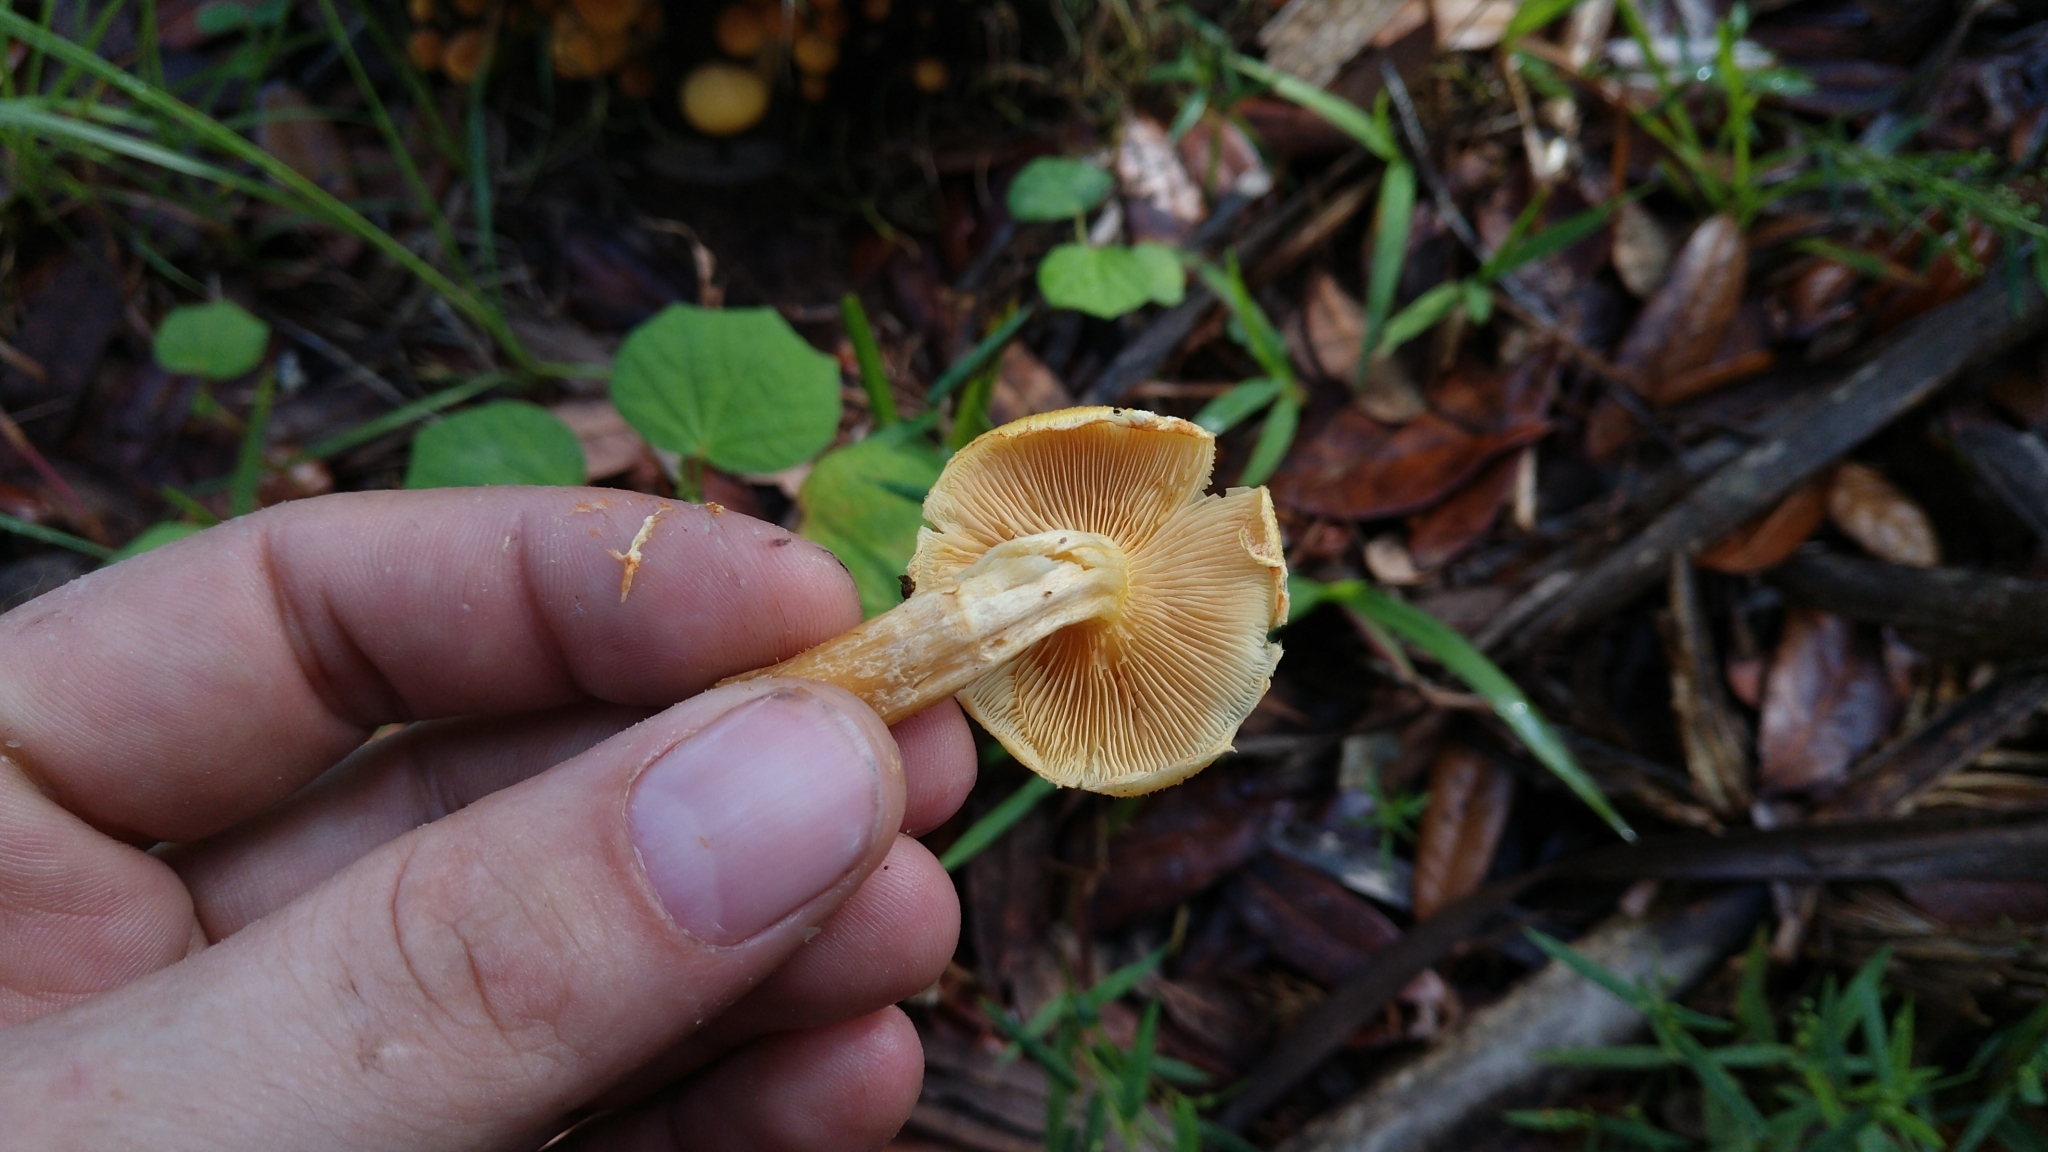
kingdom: Fungi
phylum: Basidiomycota
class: Agaricomycetes
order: Agaricales
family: Hymenogastraceae
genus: Gymnopilus
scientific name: Gymnopilus palmicola
